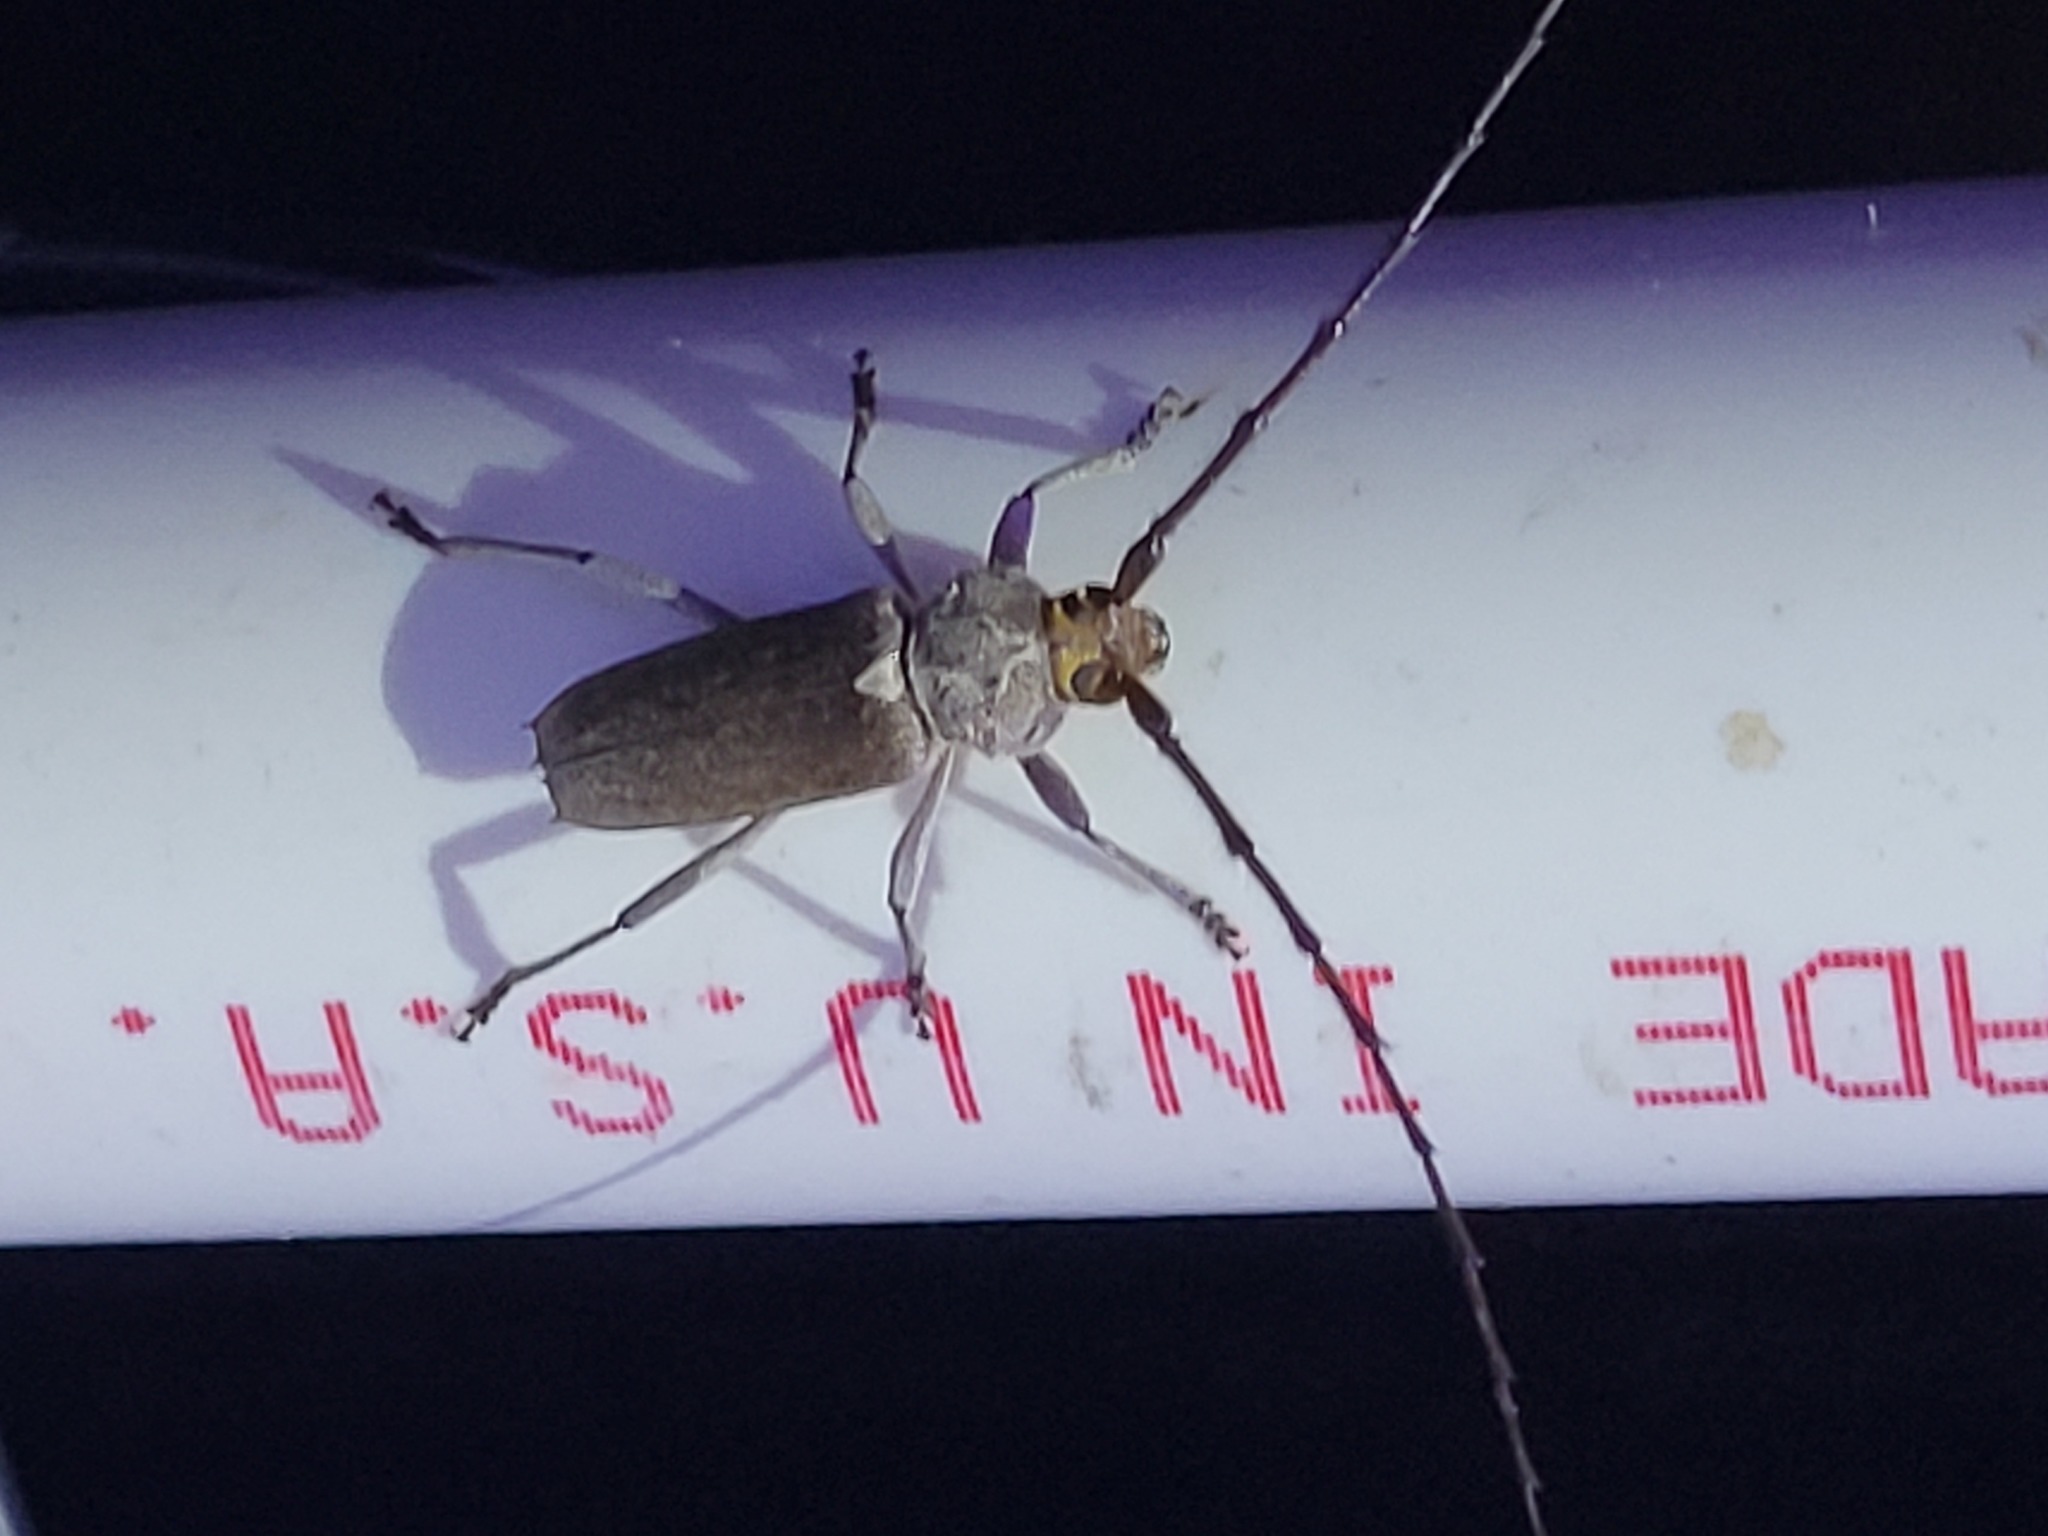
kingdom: Animalia
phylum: Arthropoda
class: Insecta
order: Coleoptera
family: Cerambycidae
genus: Gnaphalodes
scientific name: Gnaphalodes trachyderoides
